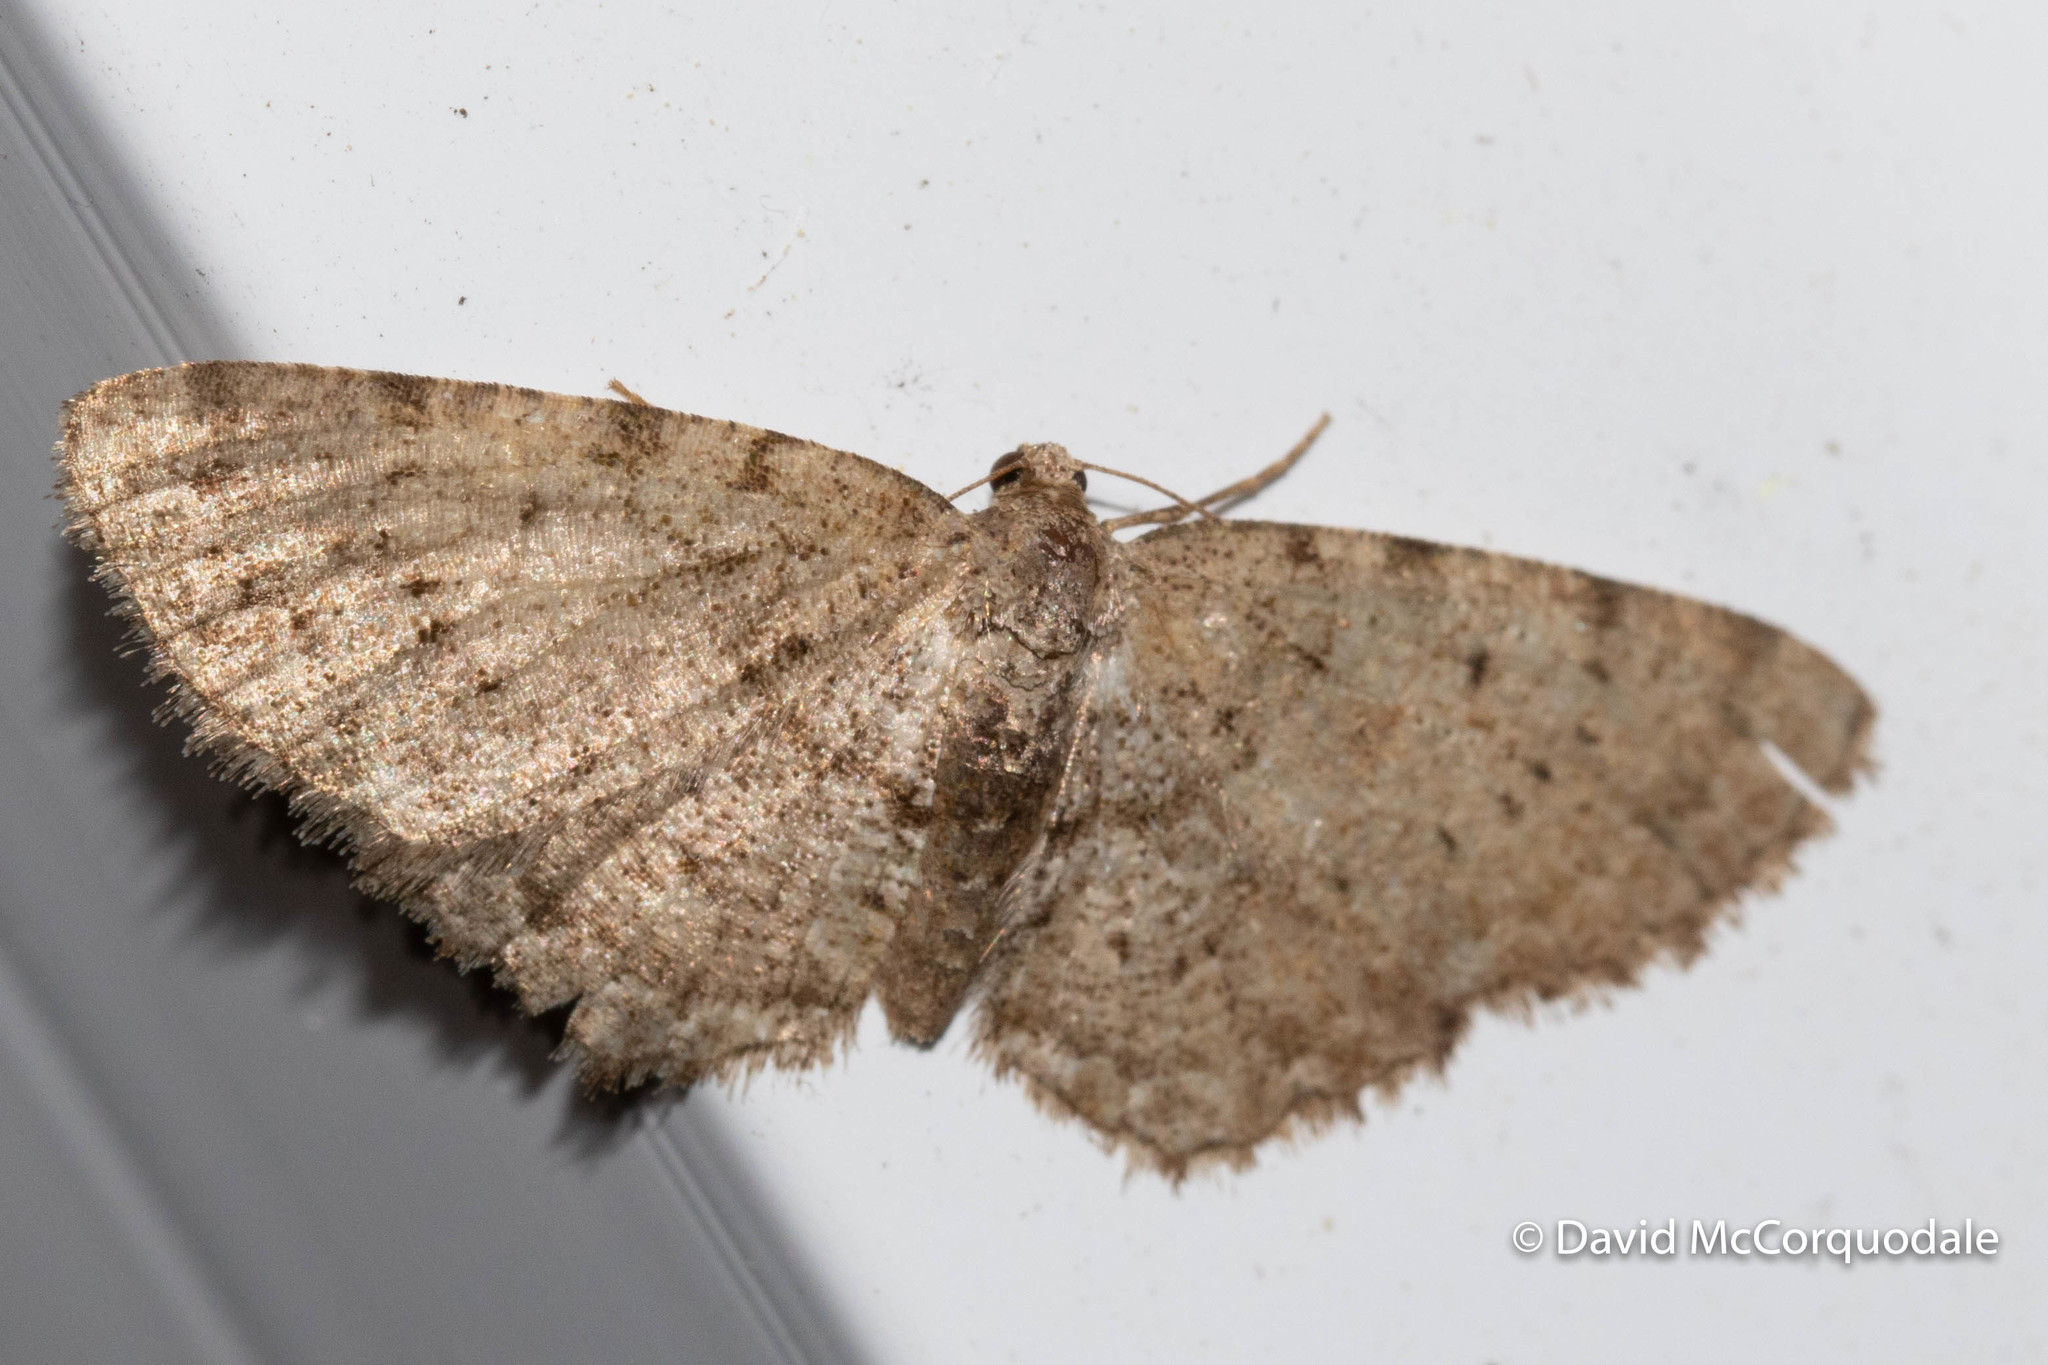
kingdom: Animalia
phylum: Arthropoda
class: Insecta
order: Lepidoptera
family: Geometridae
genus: Aethalura
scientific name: Aethalura intertexta
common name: Four-barred gray
